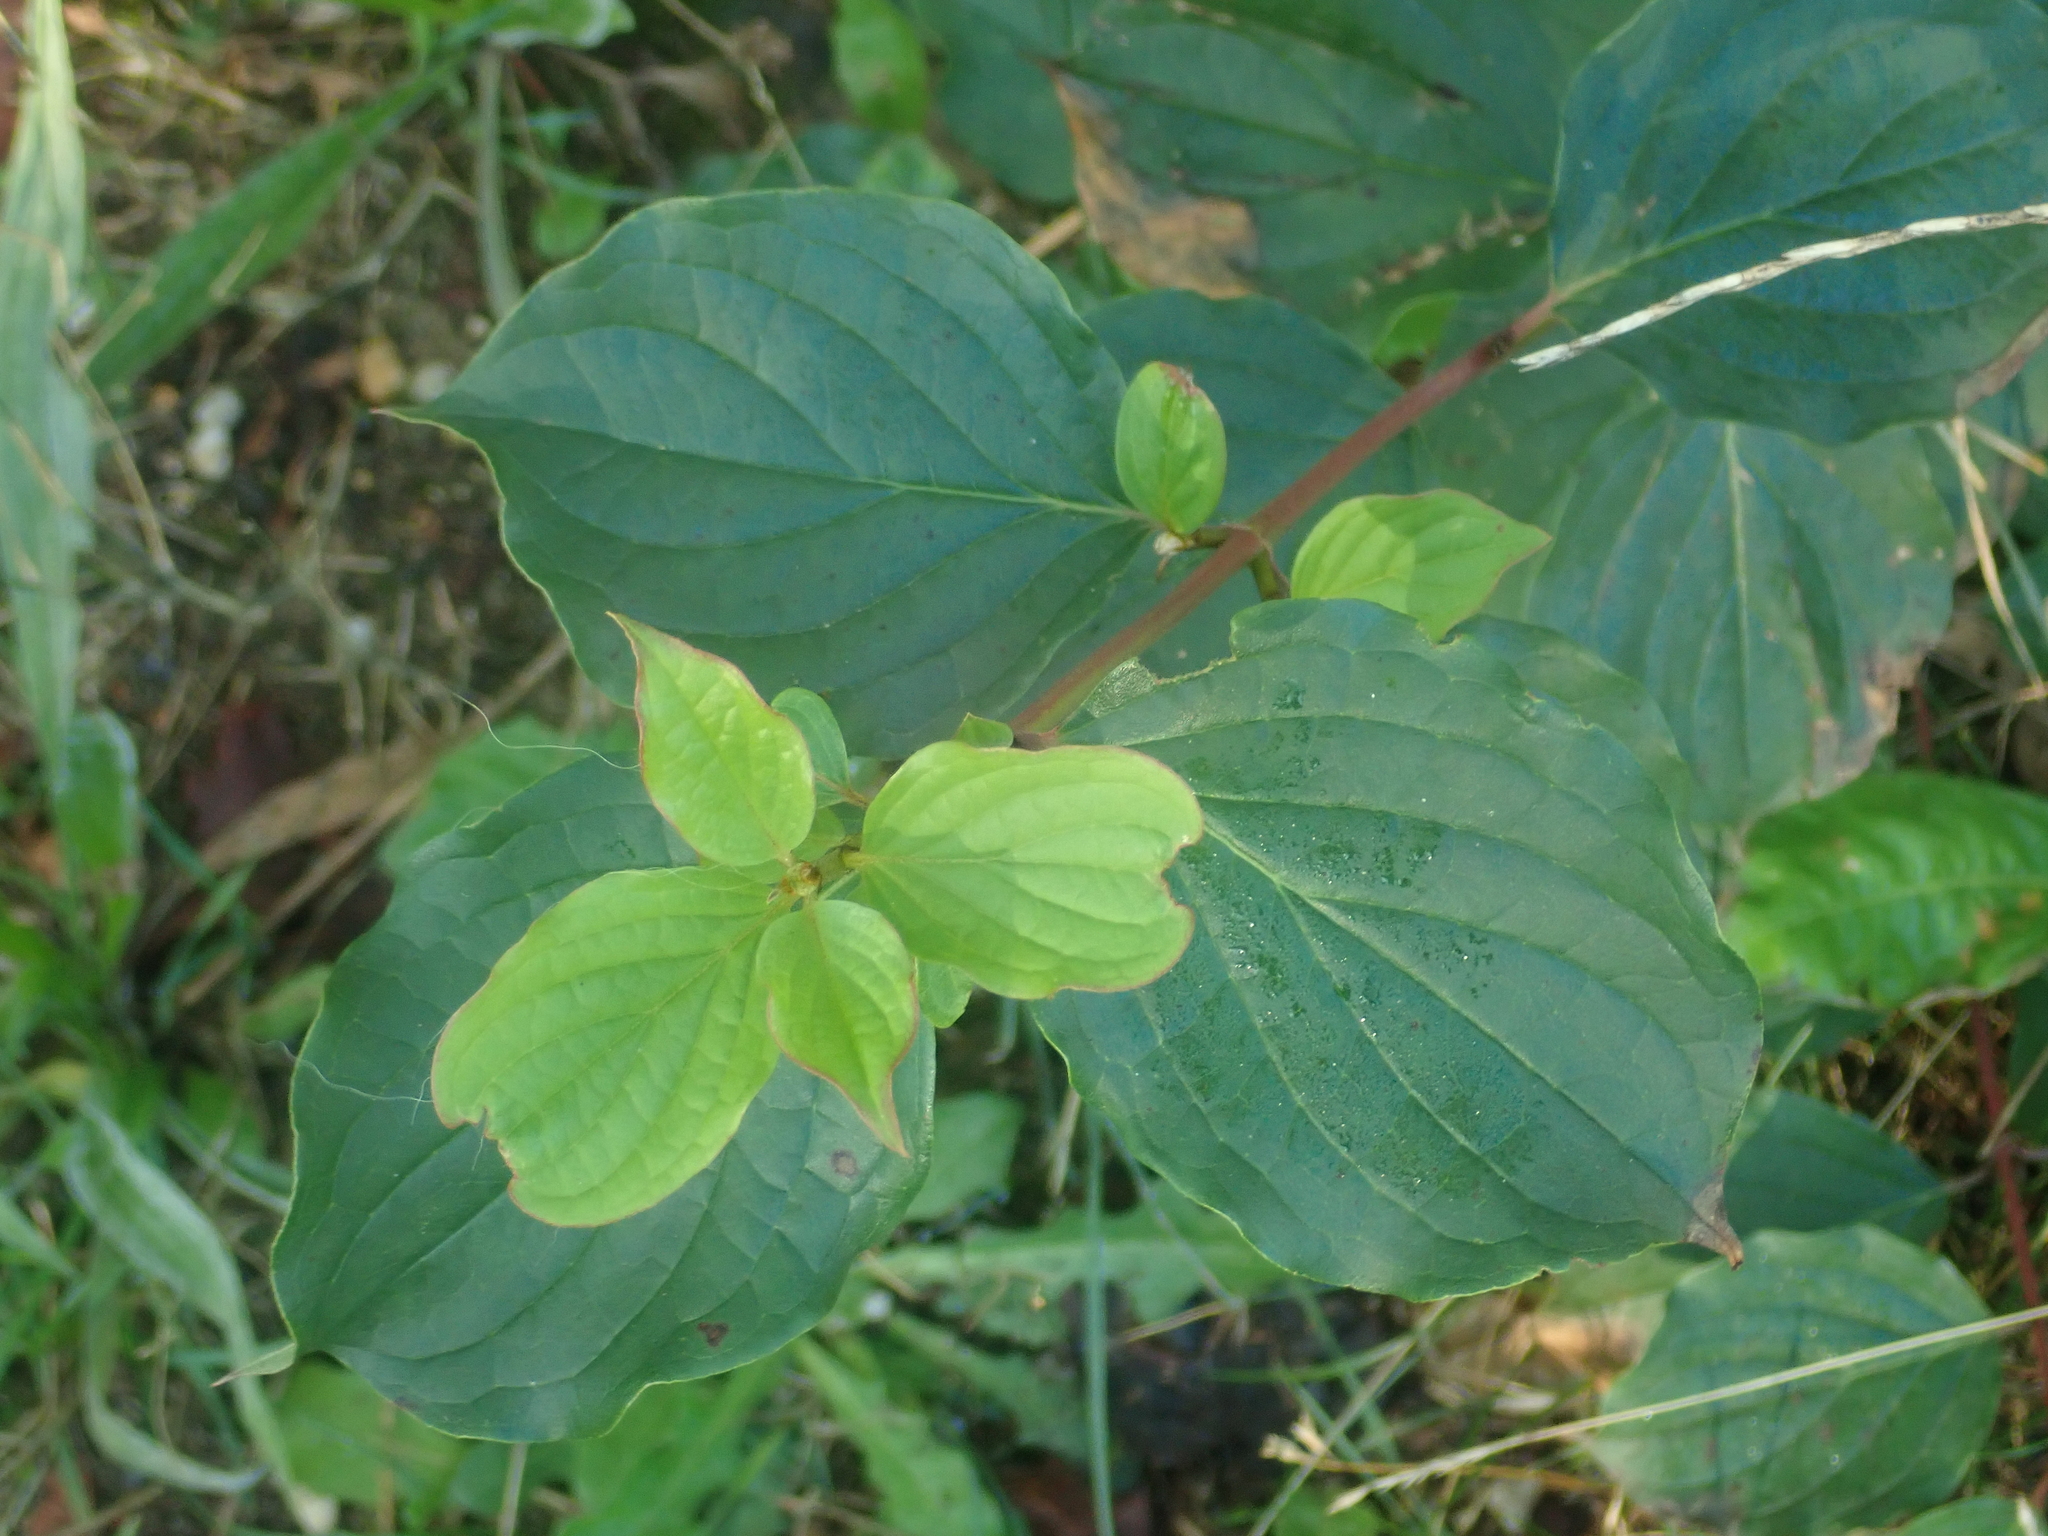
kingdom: Plantae
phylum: Tracheophyta
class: Magnoliopsida
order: Cornales
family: Cornaceae
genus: Cornus
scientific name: Cornus sanguinea
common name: Dogwood
